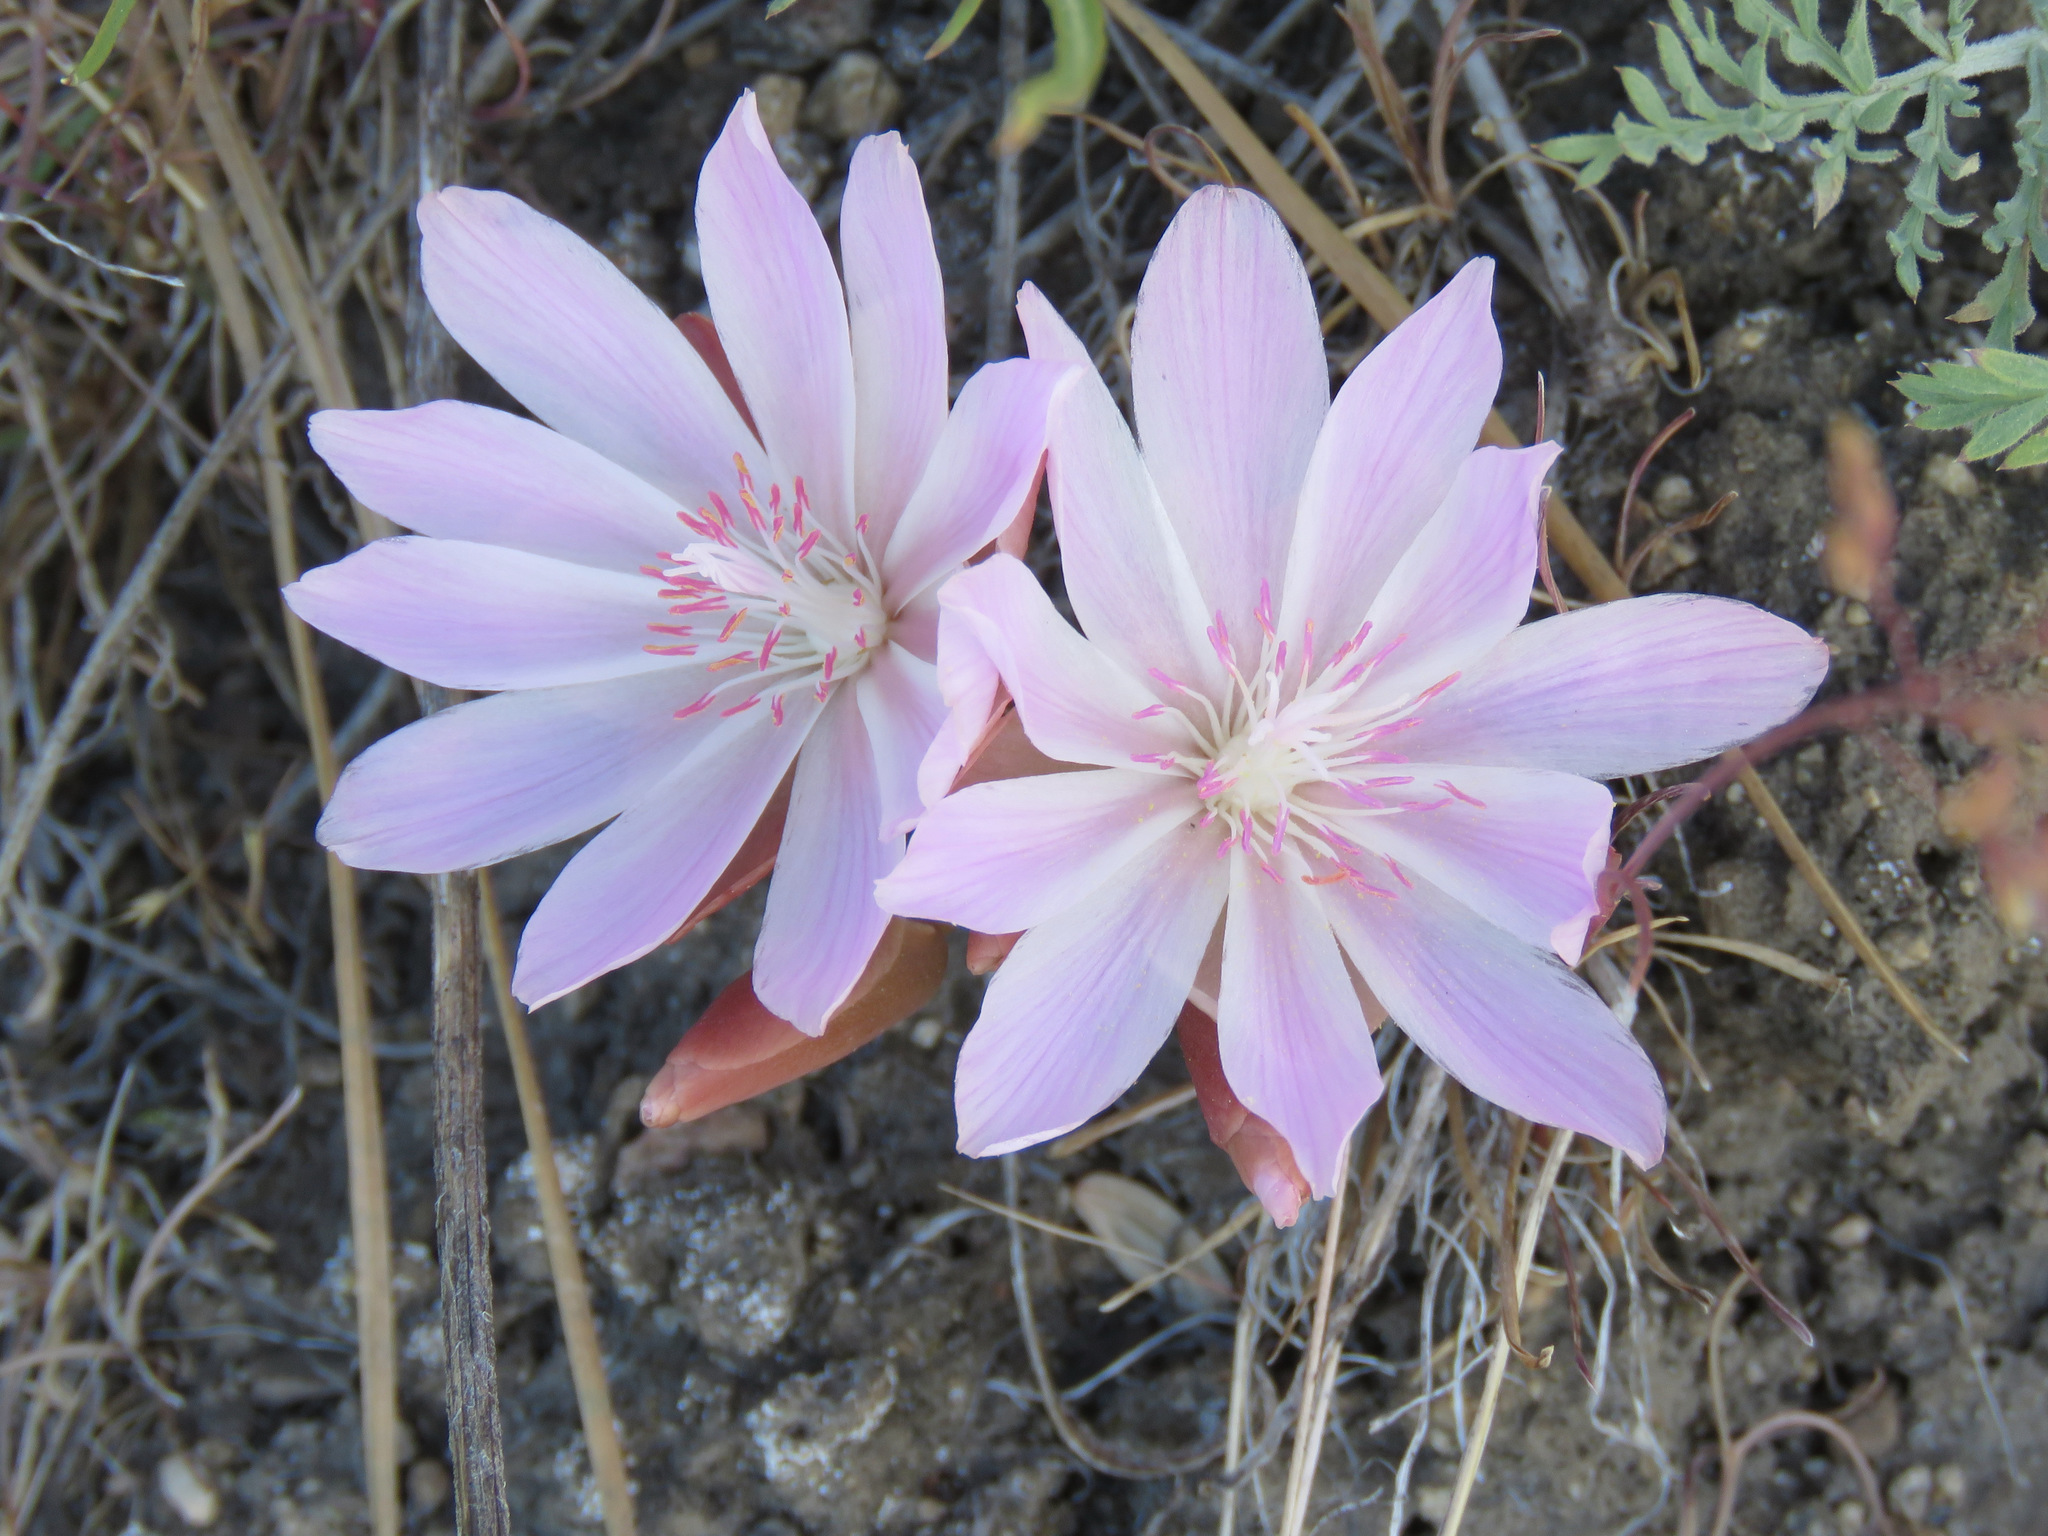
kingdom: Plantae
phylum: Tracheophyta
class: Magnoliopsida
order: Caryophyllales
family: Montiaceae
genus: Lewisia
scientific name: Lewisia rediviva
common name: Bitter-root
